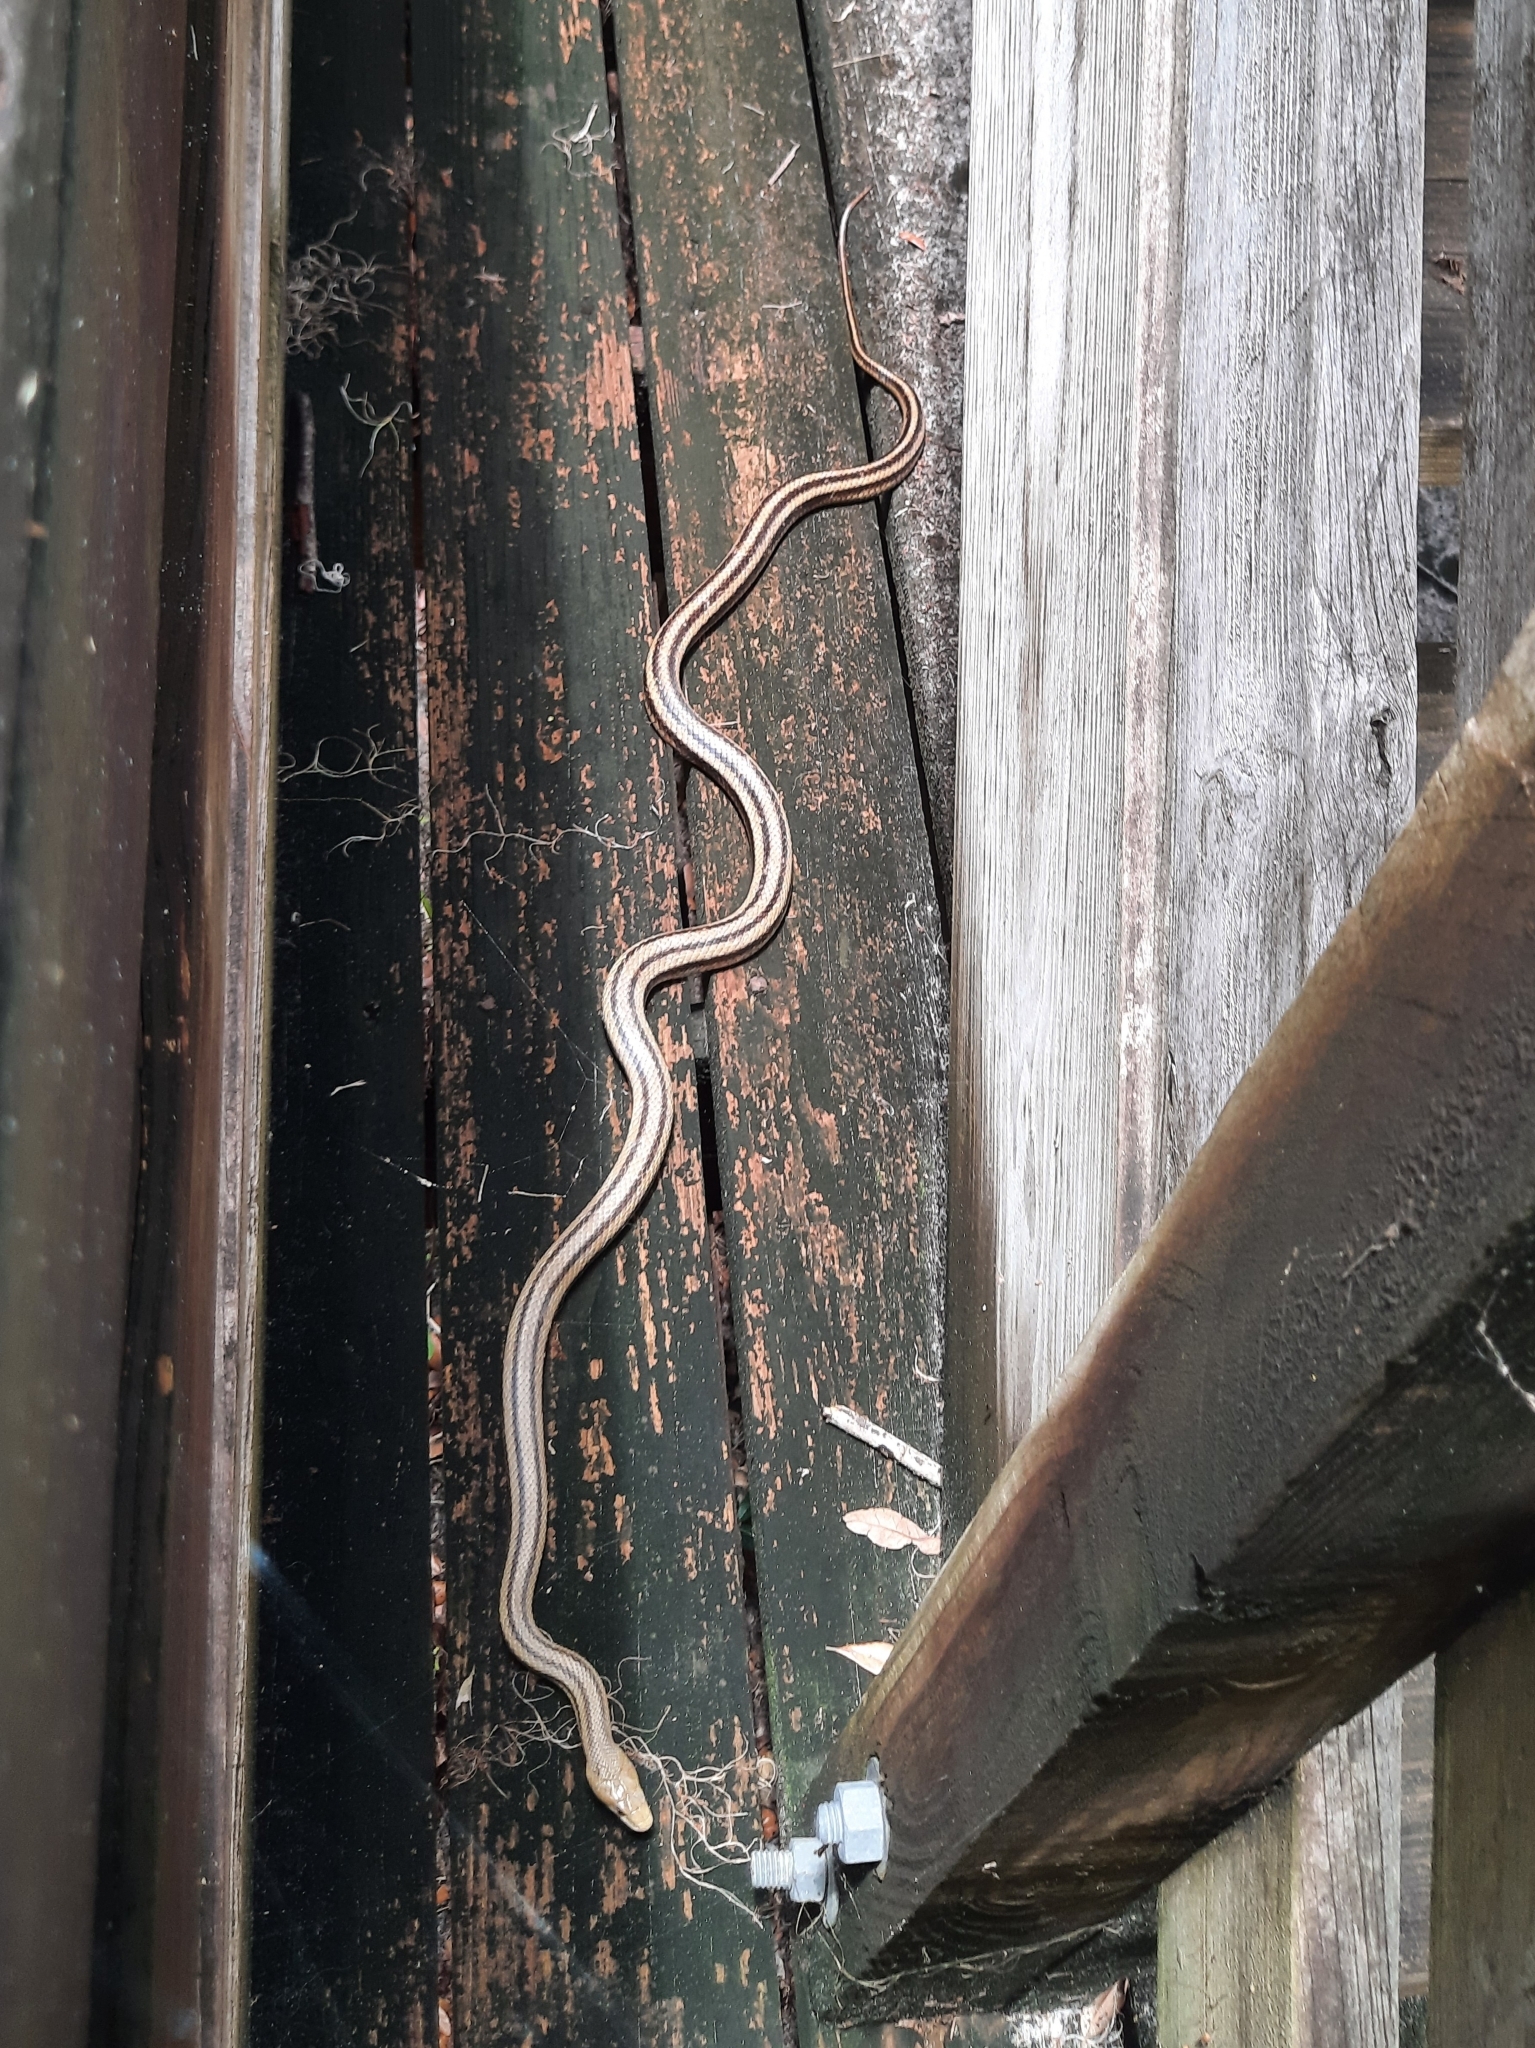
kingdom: Animalia
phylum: Chordata
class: Squamata
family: Colubridae
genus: Pantherophis
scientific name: Pantherophis alleghaniensis
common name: Eastern rat snake
